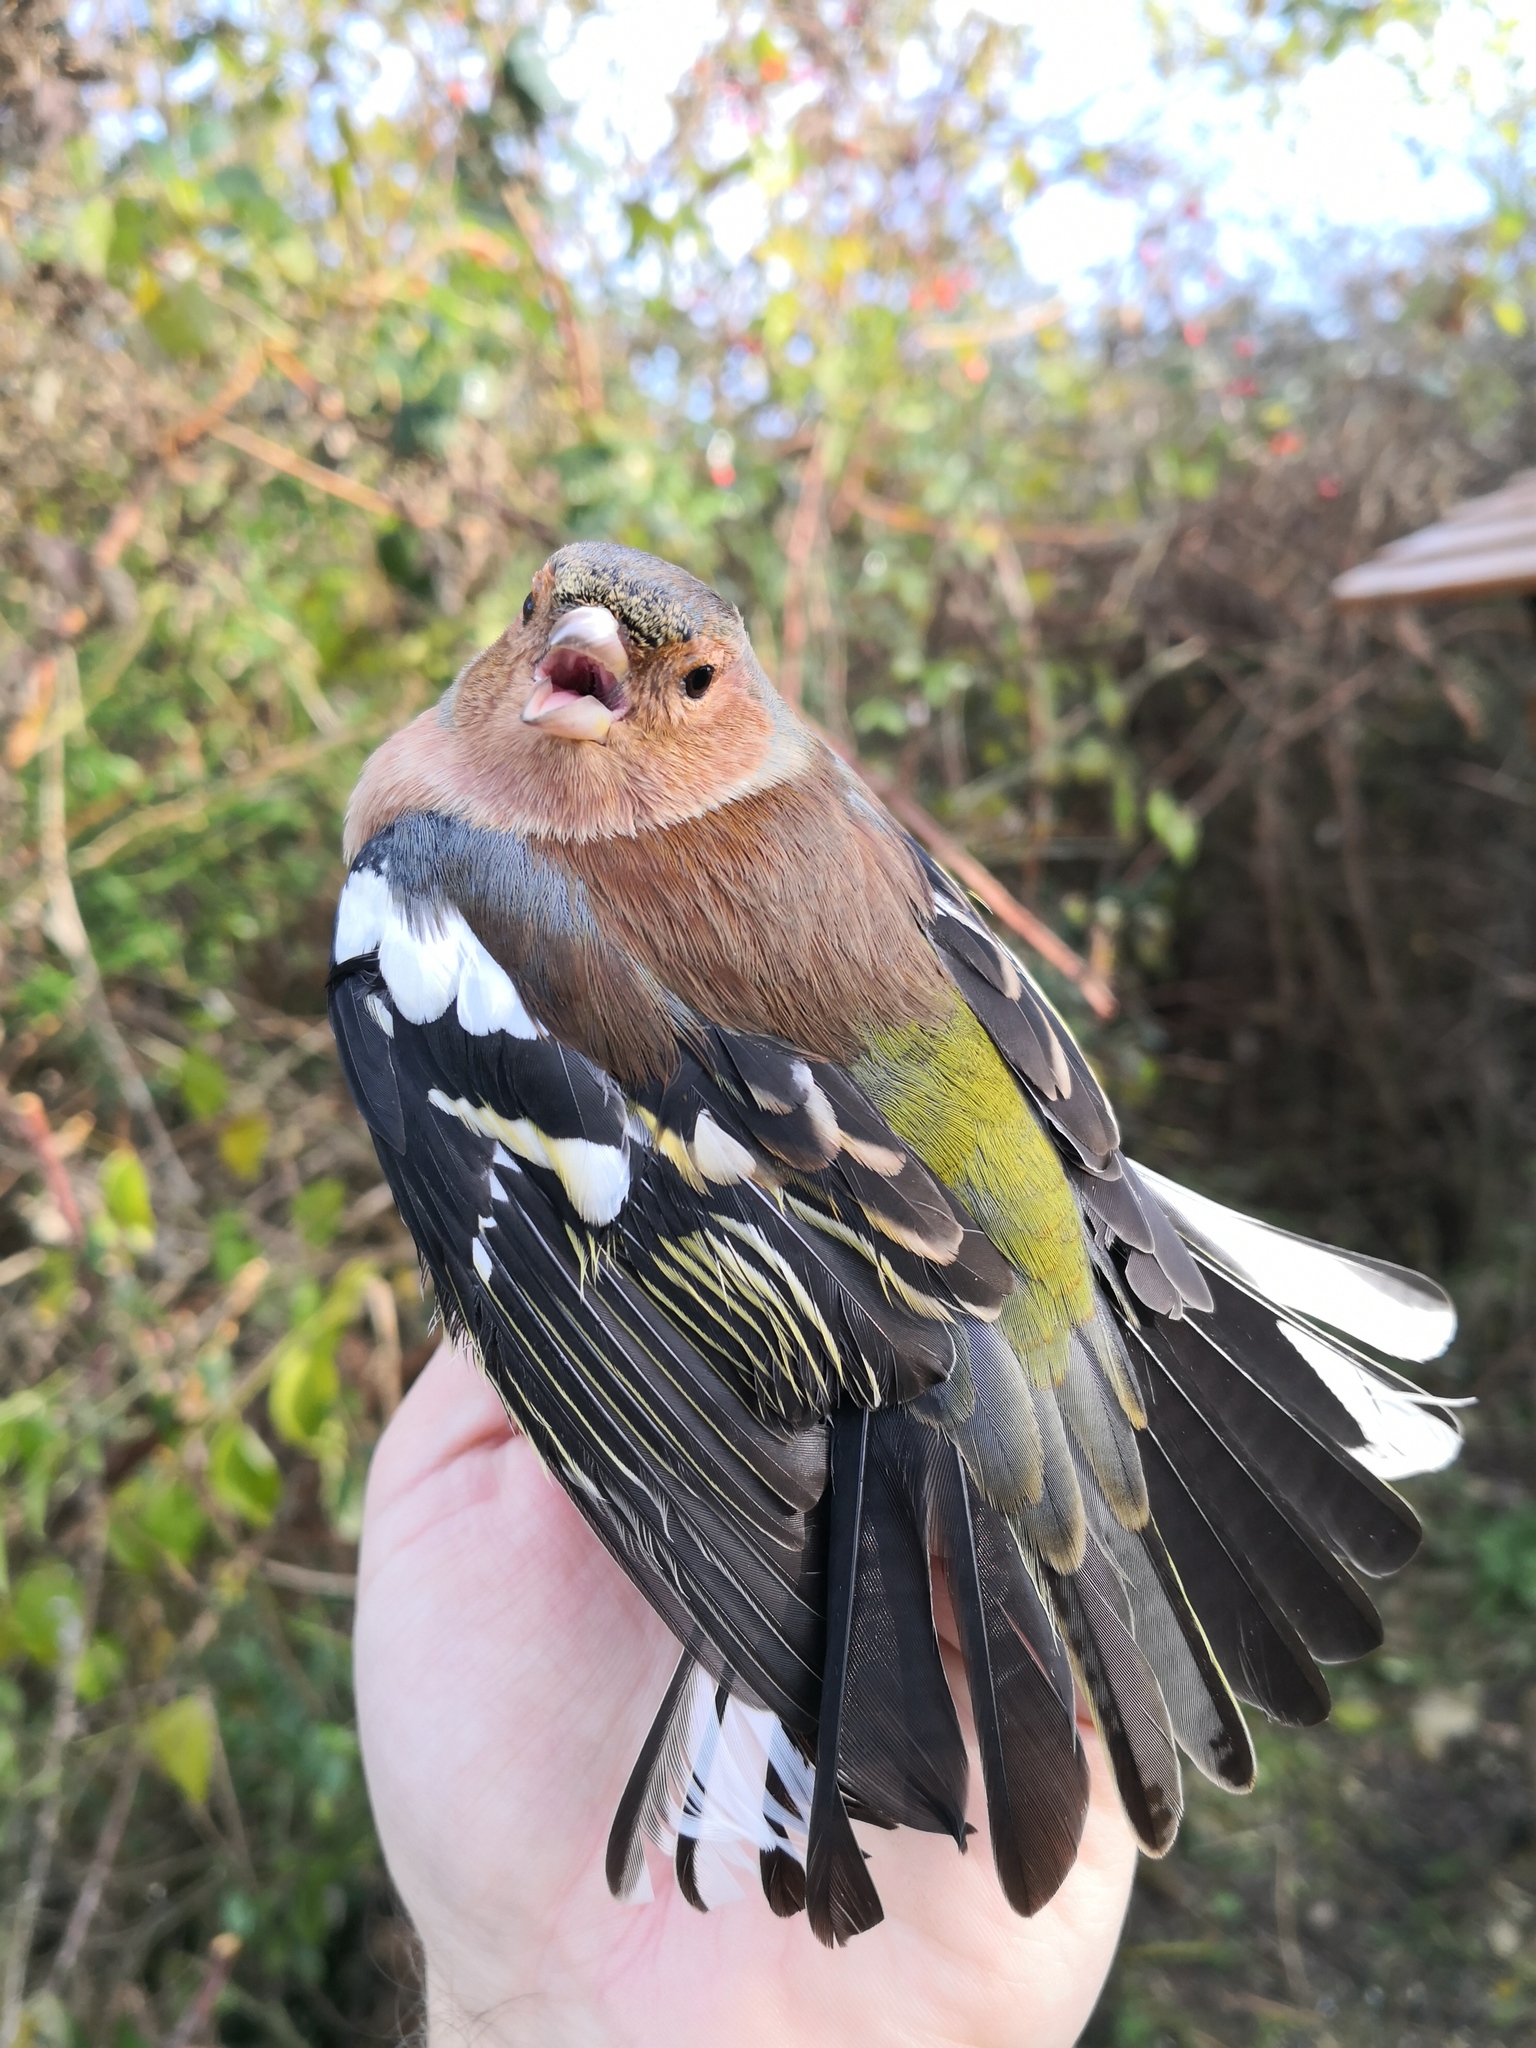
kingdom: Animalia
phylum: Chordata
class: Aves
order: Passeriformes
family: Fringillidae
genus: Fringilla
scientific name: Fringilla coelebs
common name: Common chaffinch
